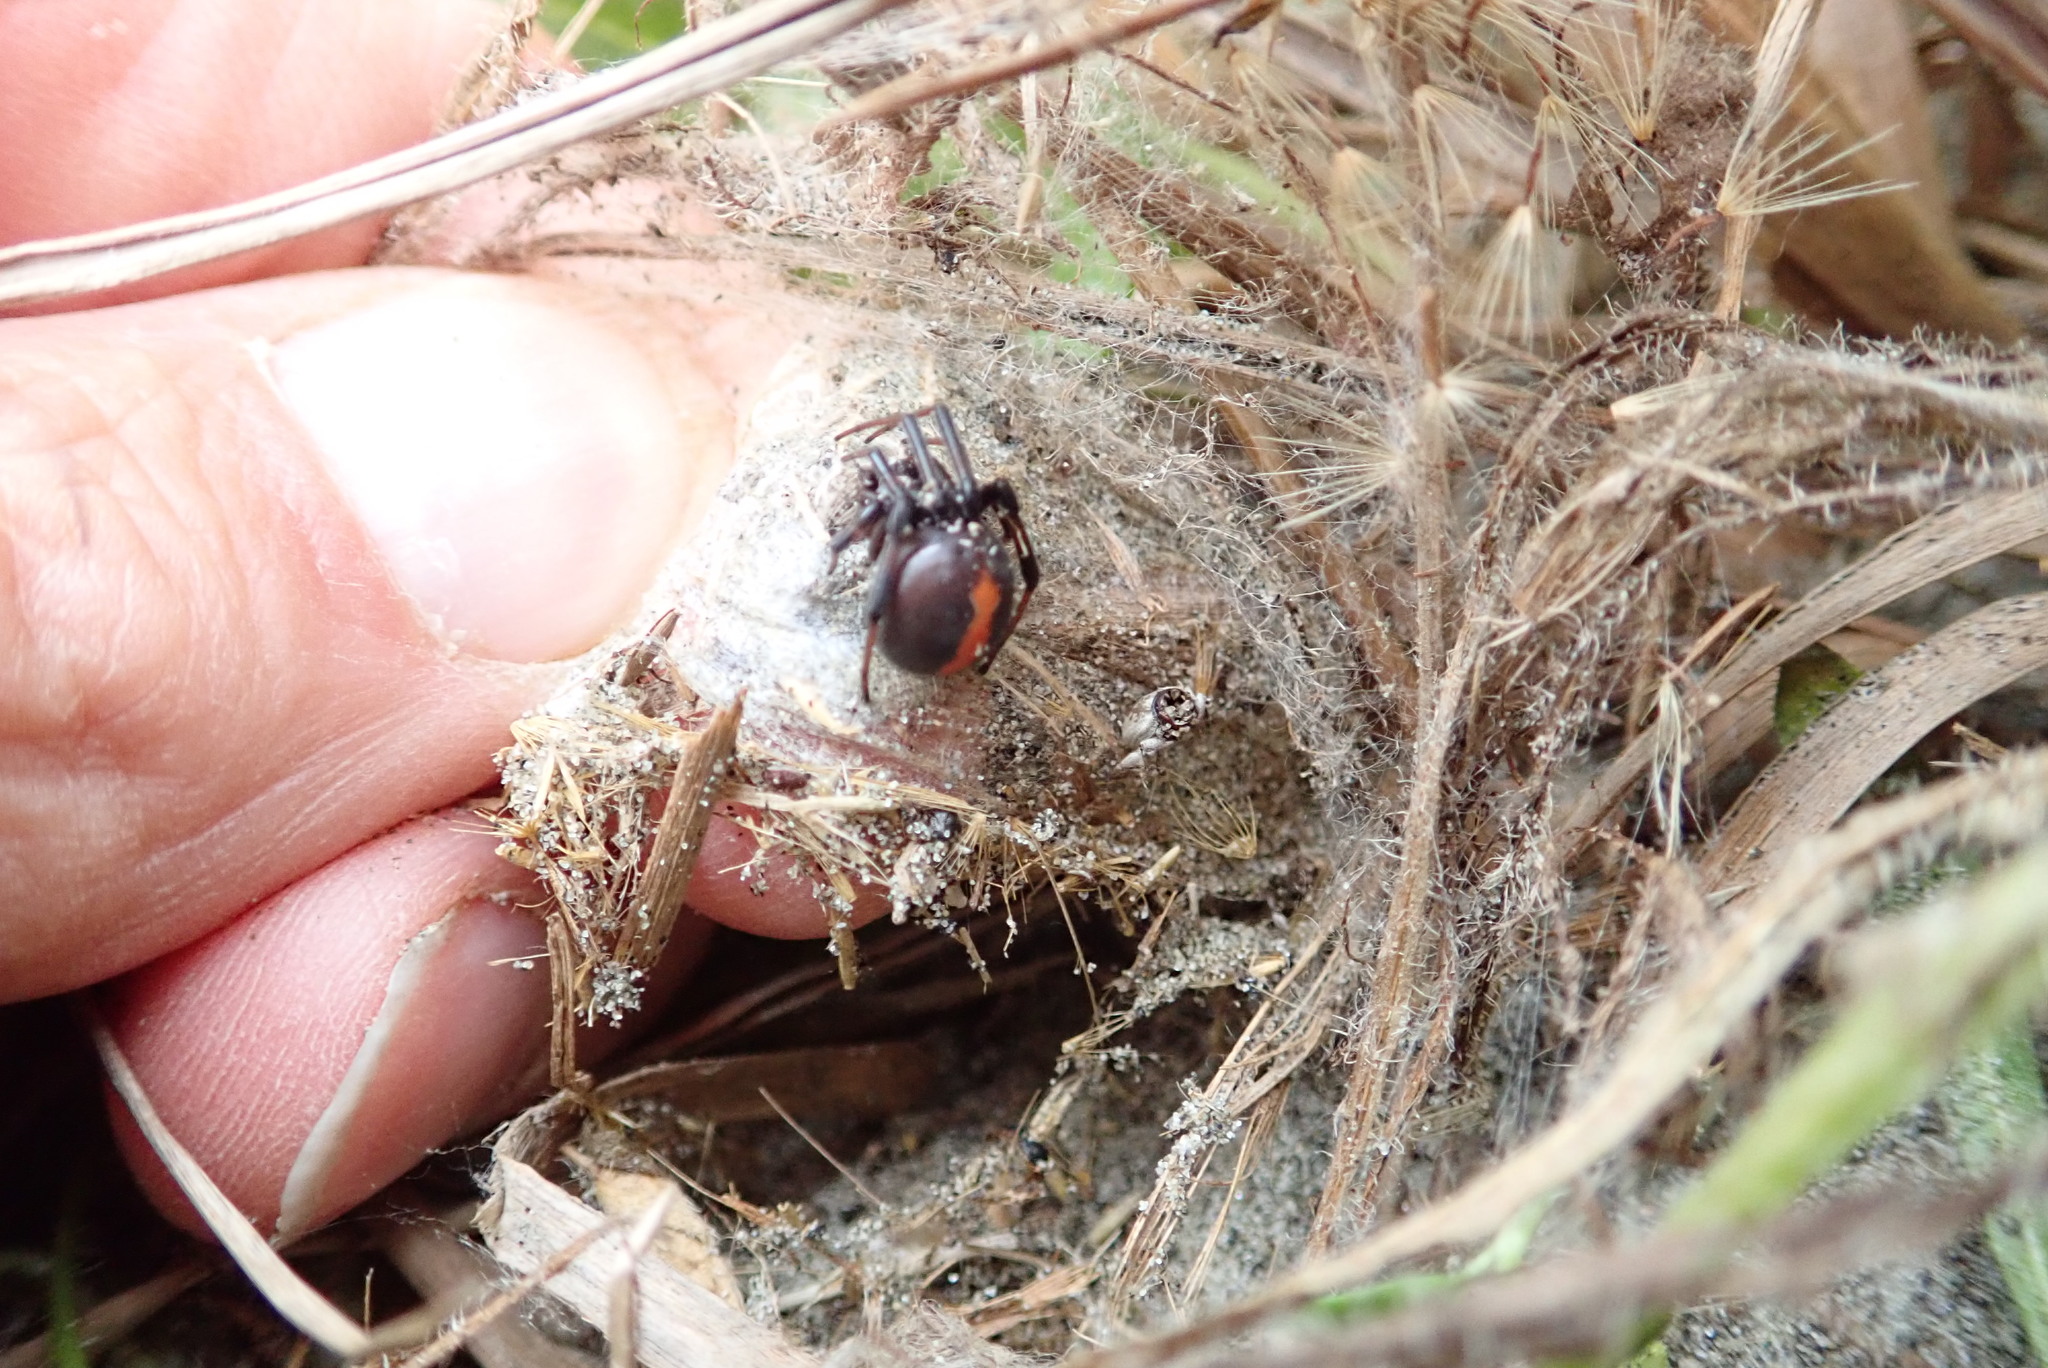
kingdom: Animalia
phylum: Arthropoda
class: Arachnida
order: Araneae
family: Theridiidae
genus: Latrodectus
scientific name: Latrodectus katipo
